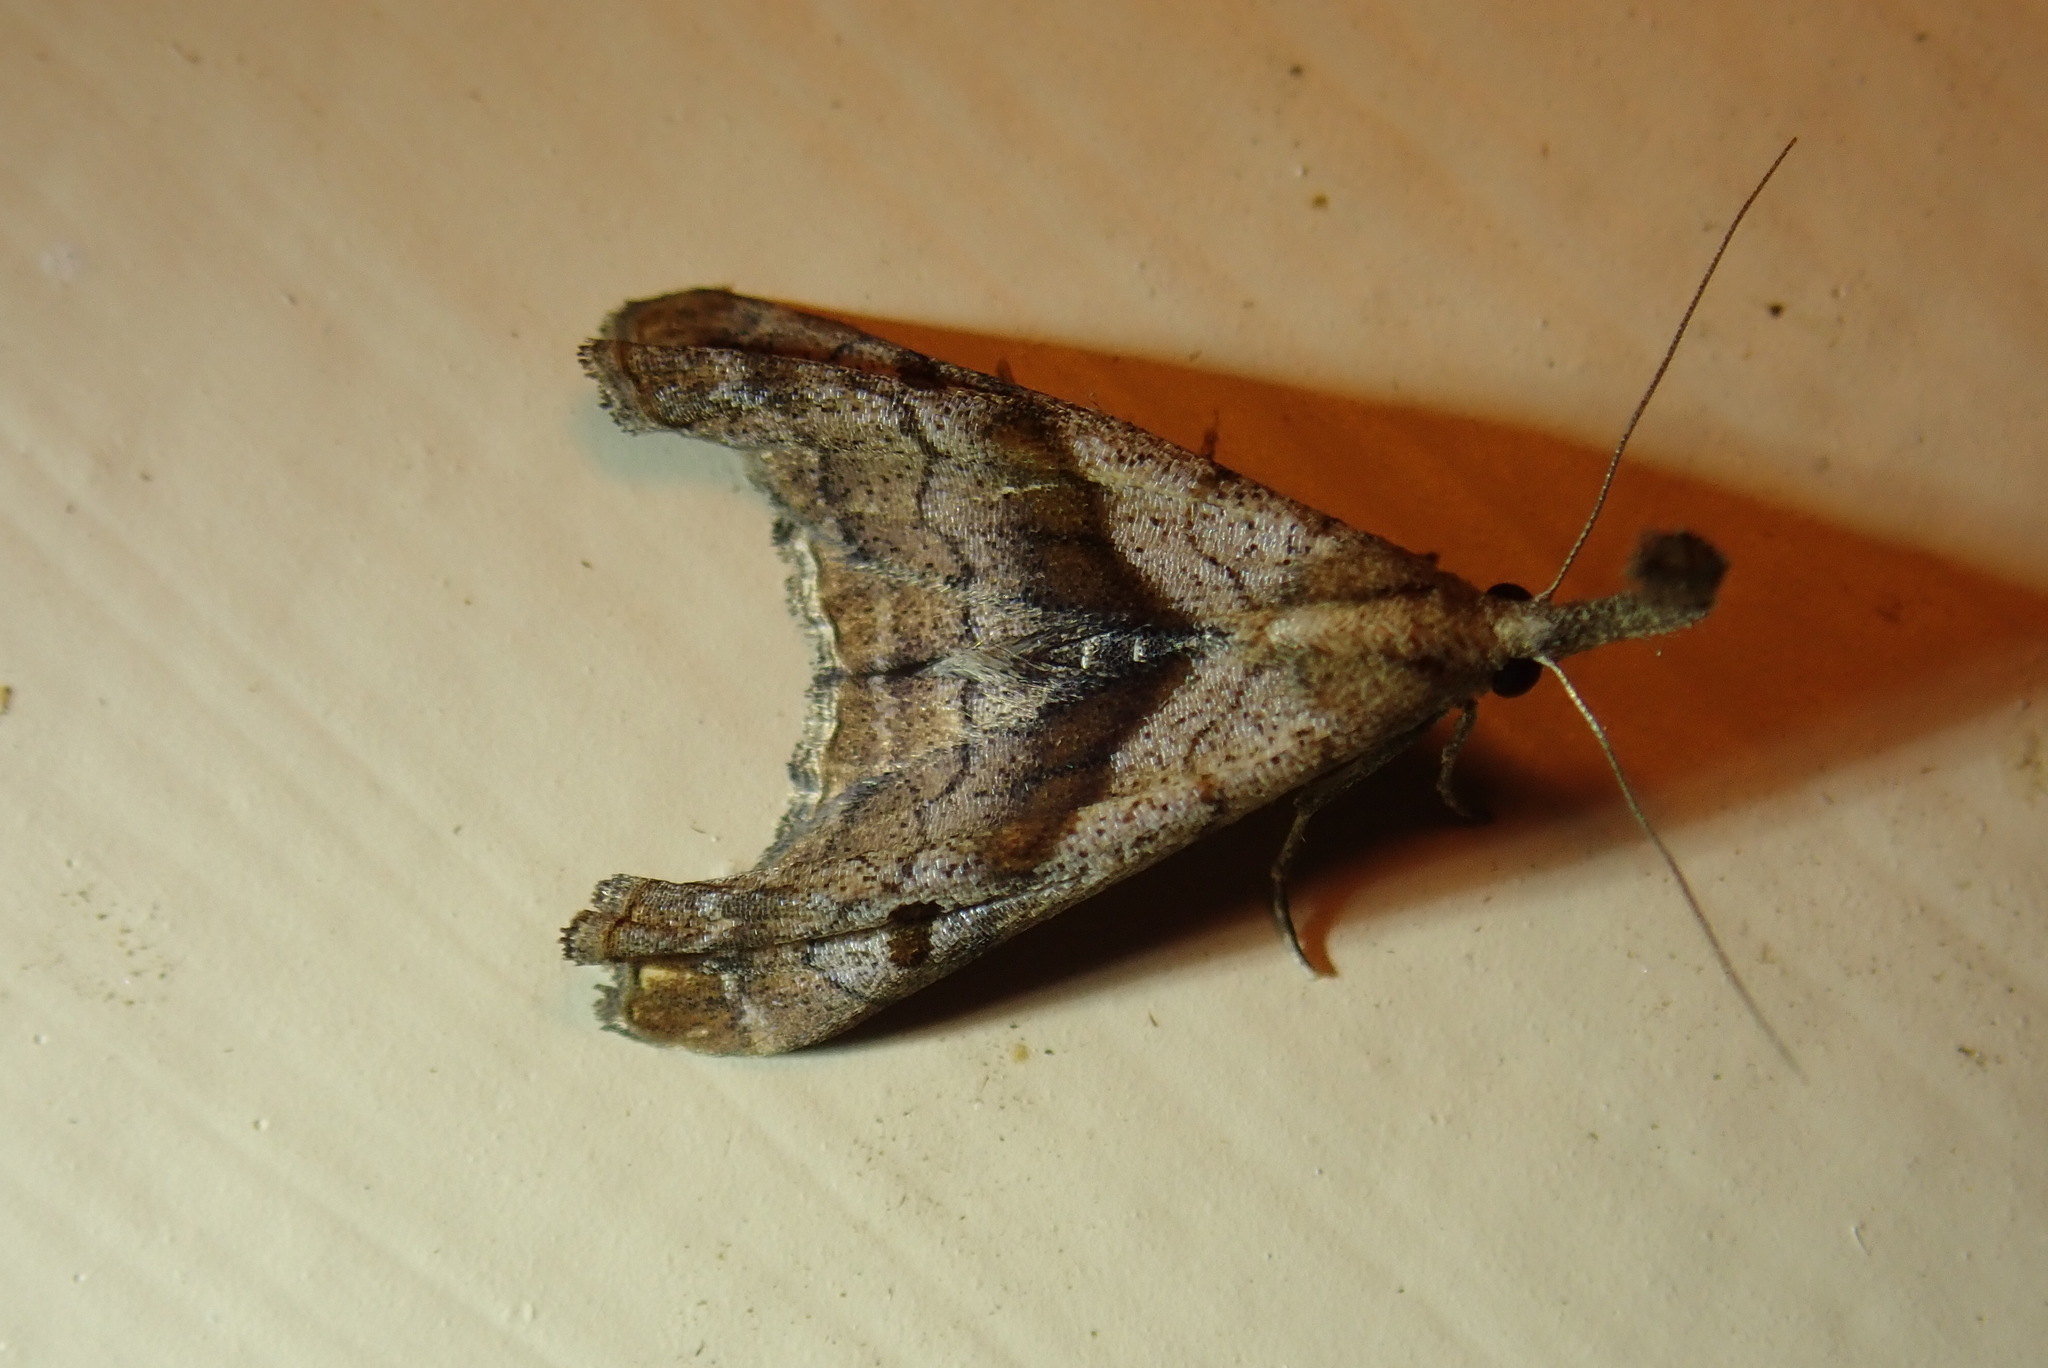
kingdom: Animalia
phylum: Arthropoda
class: Insecta
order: Lepidoptera
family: Erebidae
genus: Palthis
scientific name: Palthis angulalis
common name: Dark-spotted palthis moth
